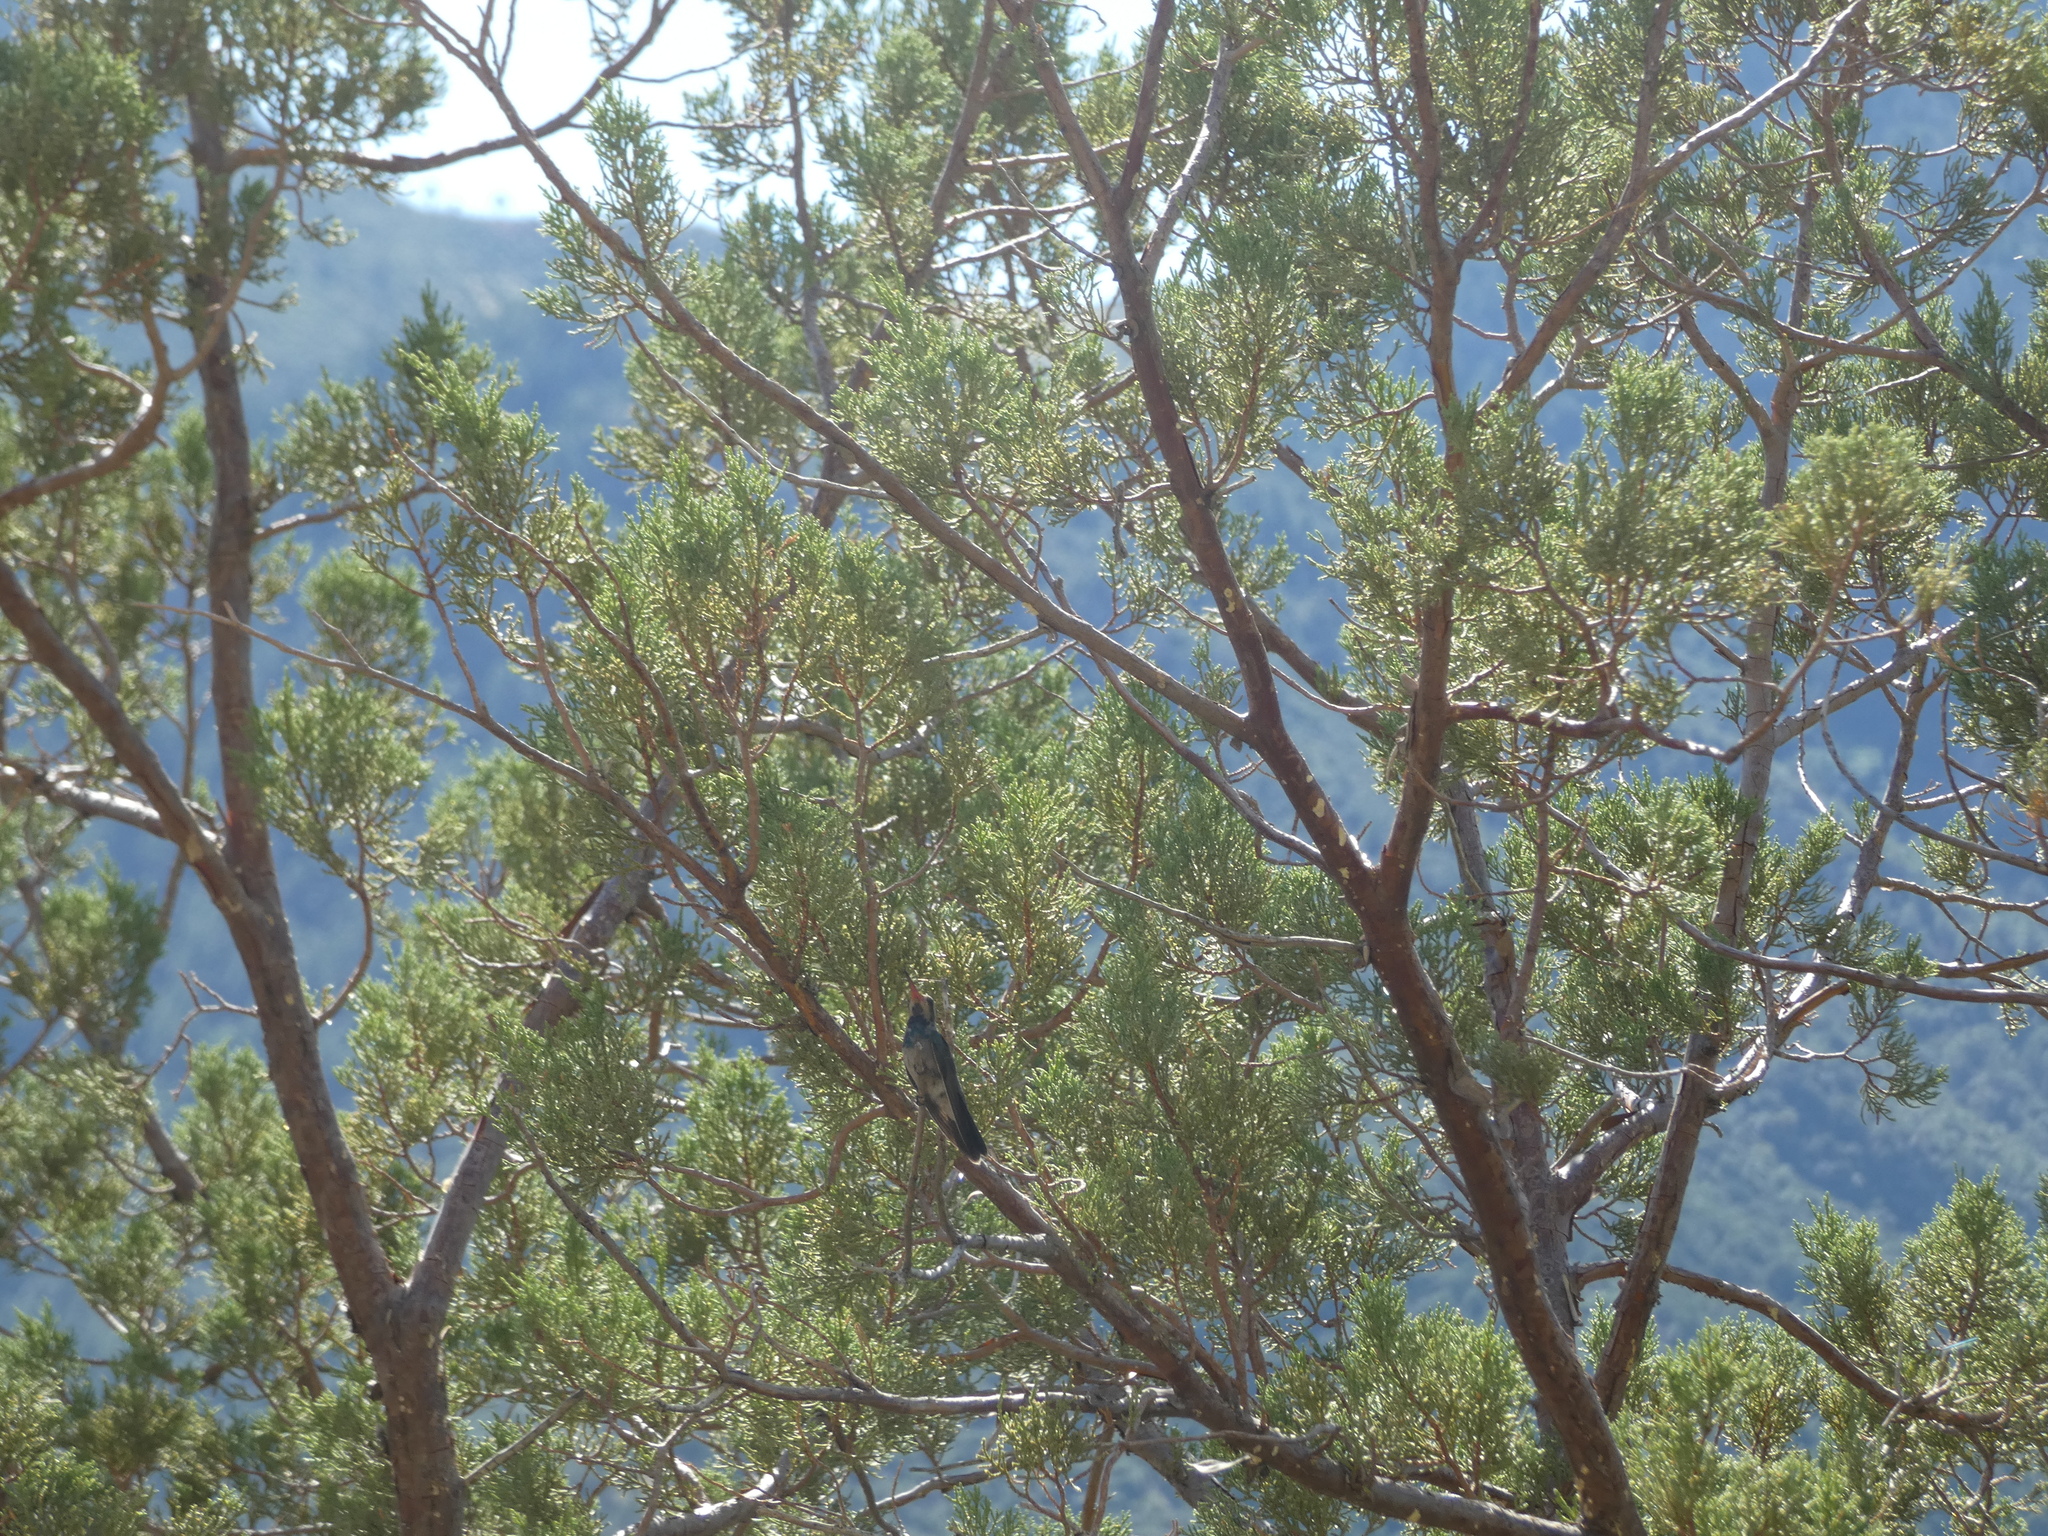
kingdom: Animalia
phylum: Chordata
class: Aves
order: Apodiformes
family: Trochilidae
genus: Cynanthus
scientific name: Cynanthus latirostris
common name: Broad-billed hummingbird
